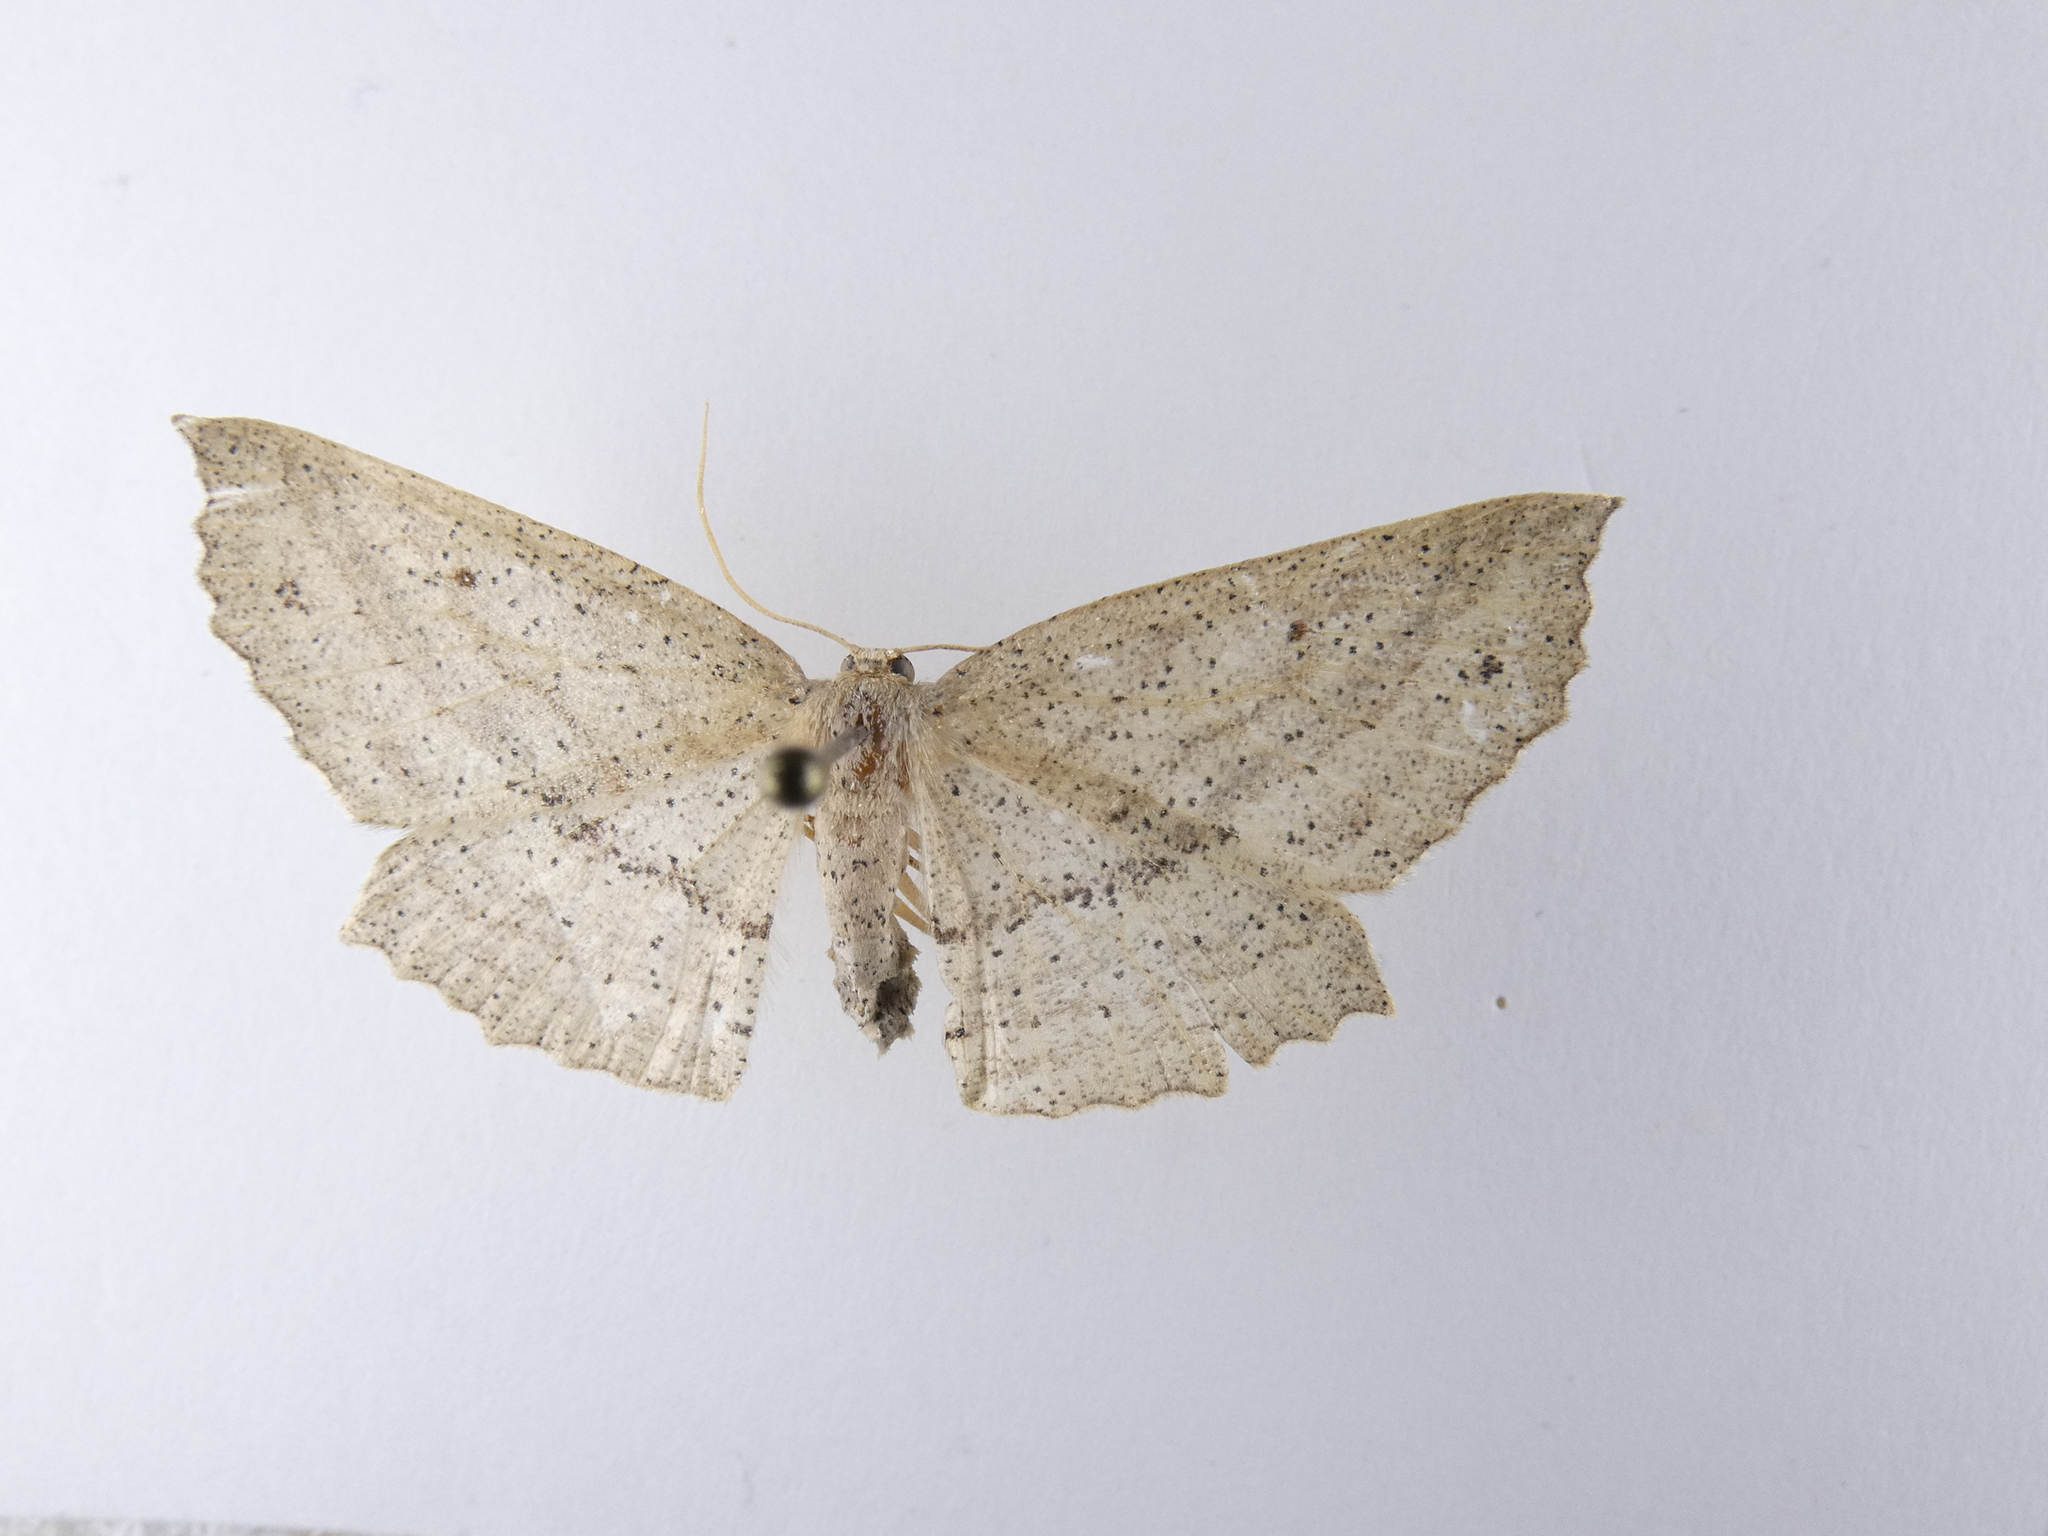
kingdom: Animalia
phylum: Arthropoda
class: Insecta
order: Lepidoptera
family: Geometridae
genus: Xyridacma
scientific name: Xyridacma veronicae
